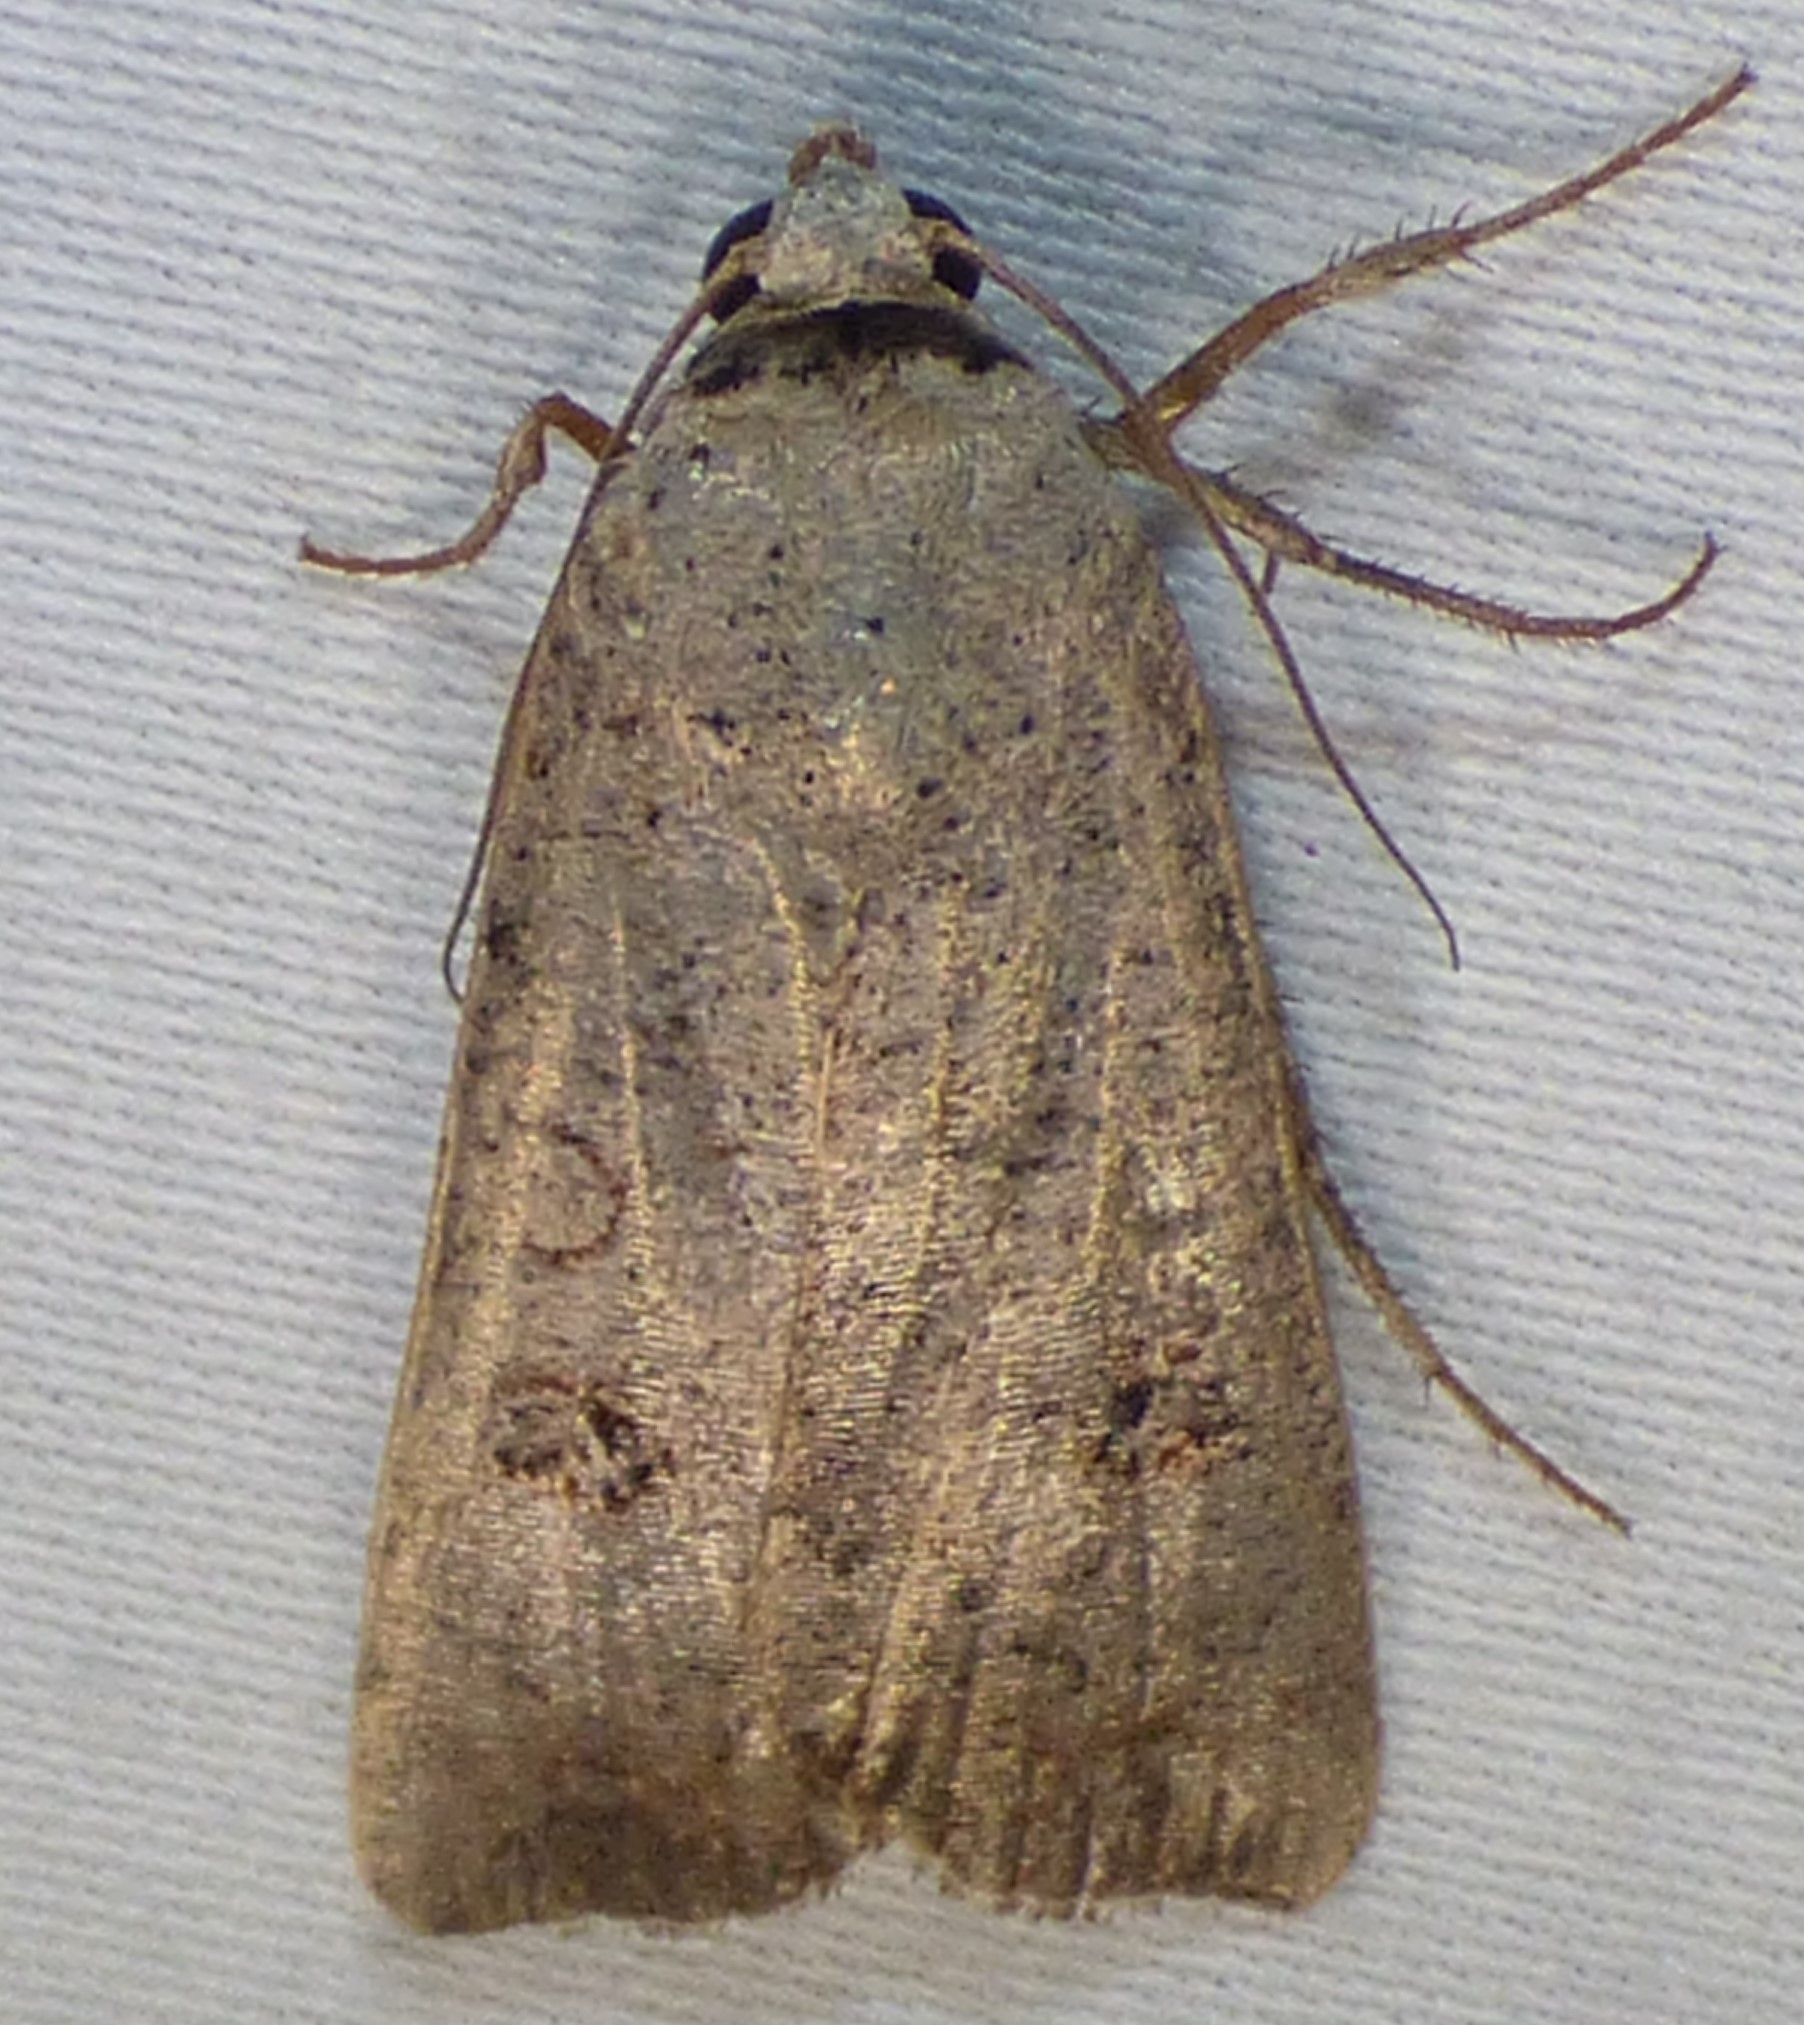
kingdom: Animalia
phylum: Arthropoda
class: Insecta
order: Lepidoptera
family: Noctuidae
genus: Anicla
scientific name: Anicla infecta
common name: Green cutworm
